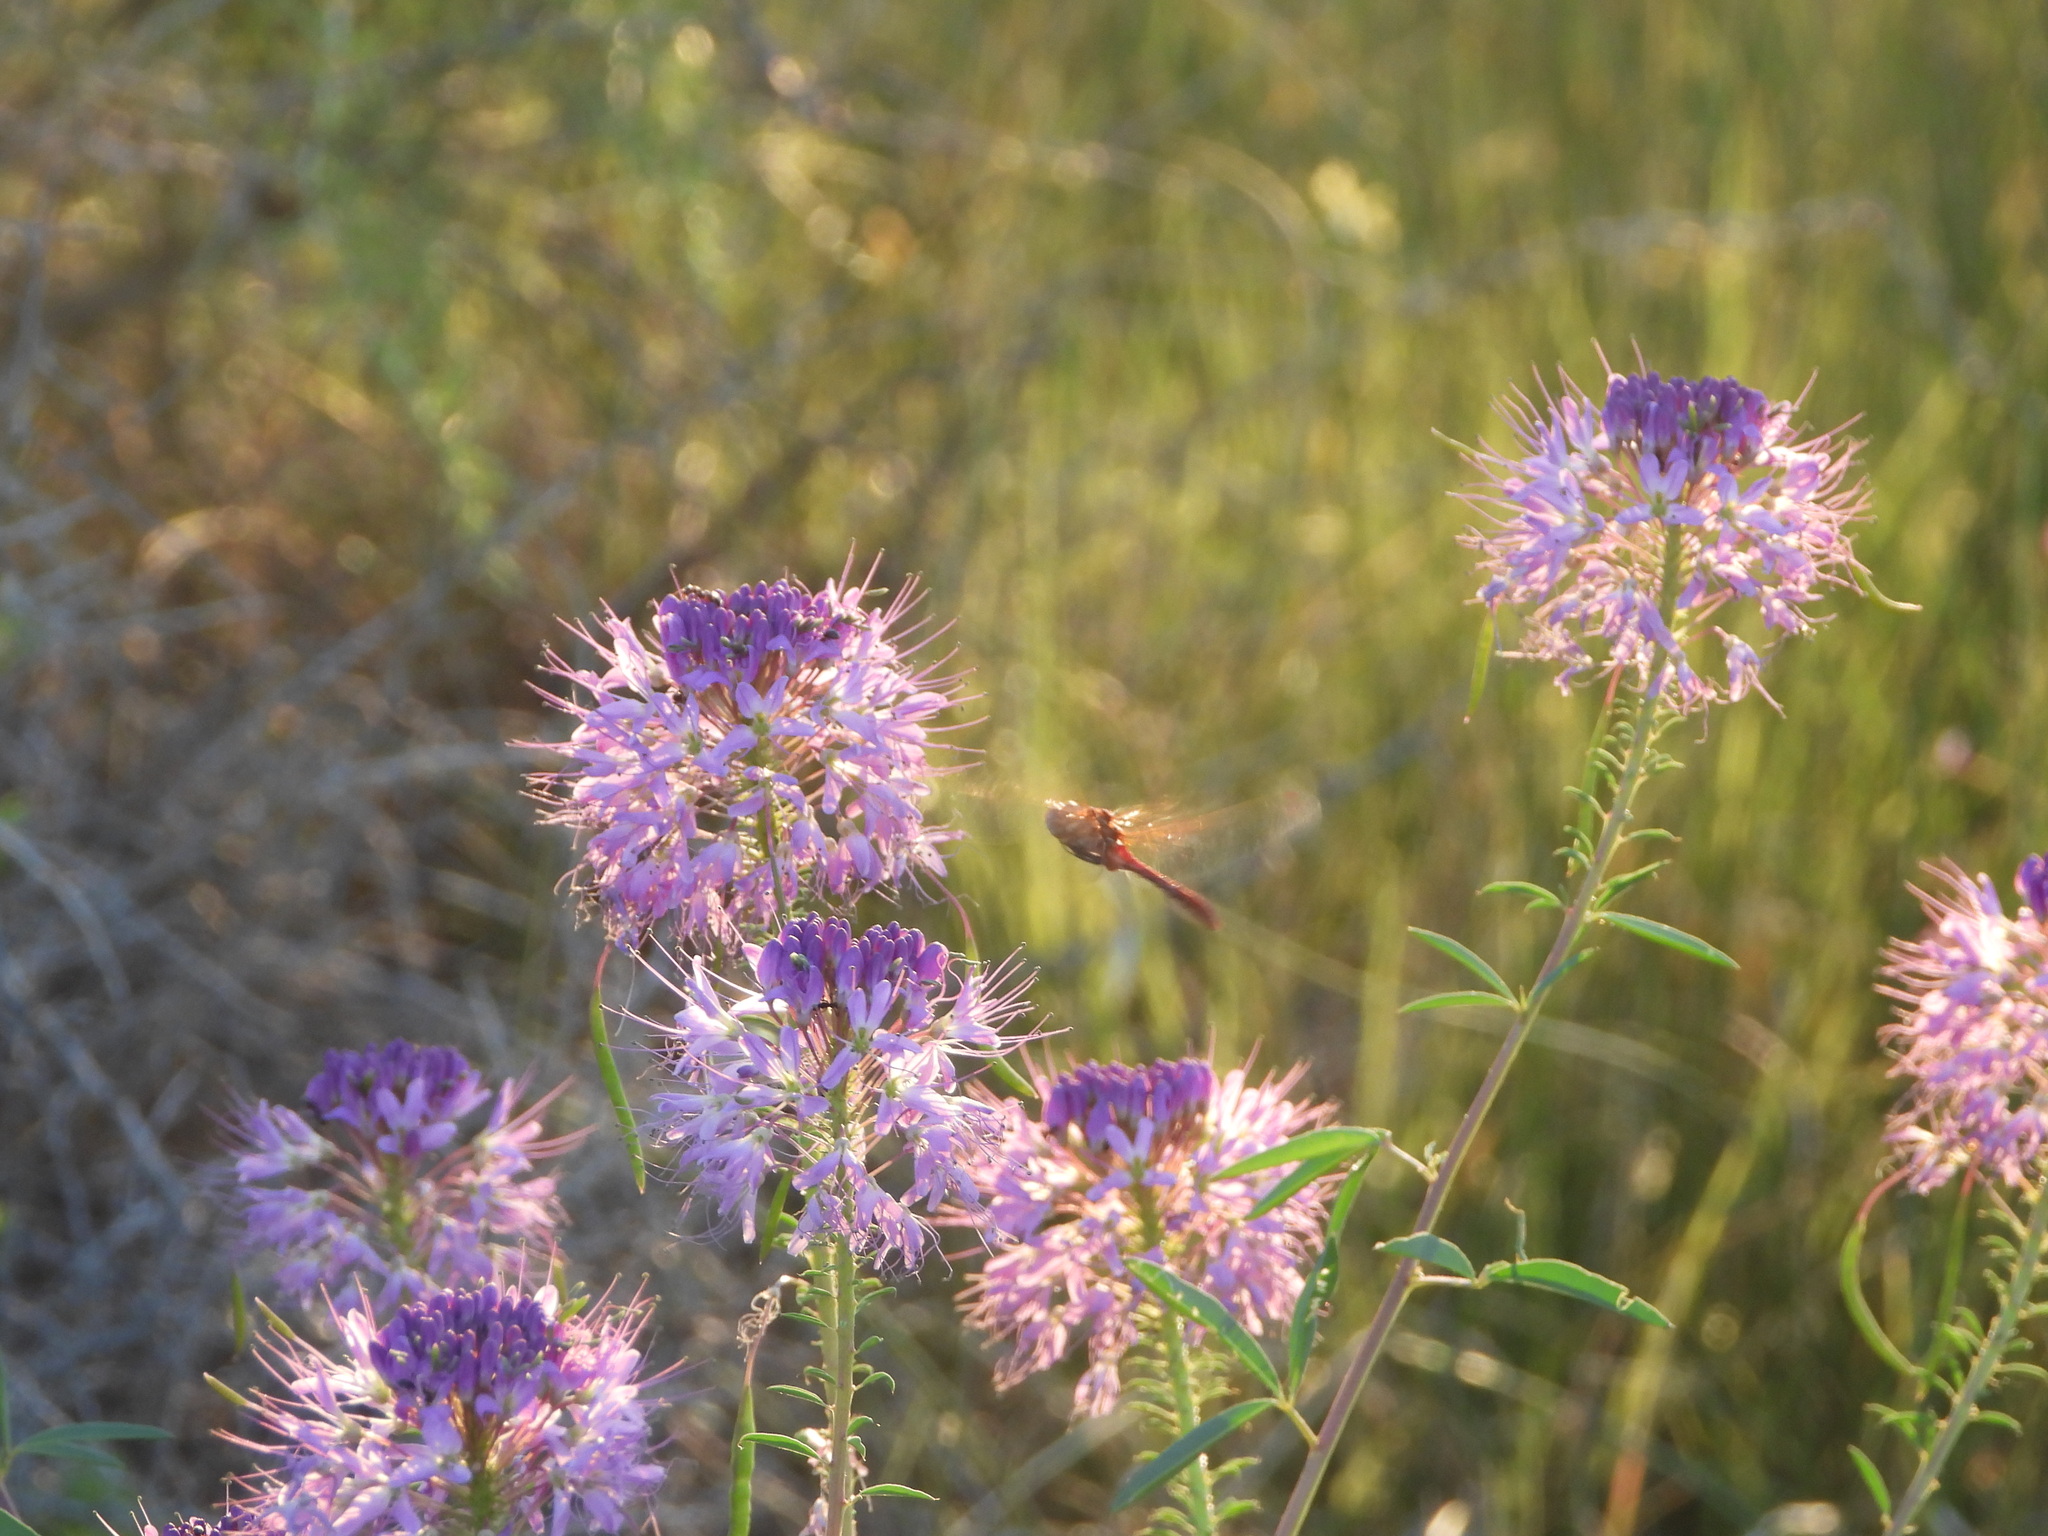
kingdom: Plantae
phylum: Tracheophyta
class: Magnoliopsida
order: Brassicales
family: Cleomaceae
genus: Cleomella
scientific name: Cleomella serrulata
